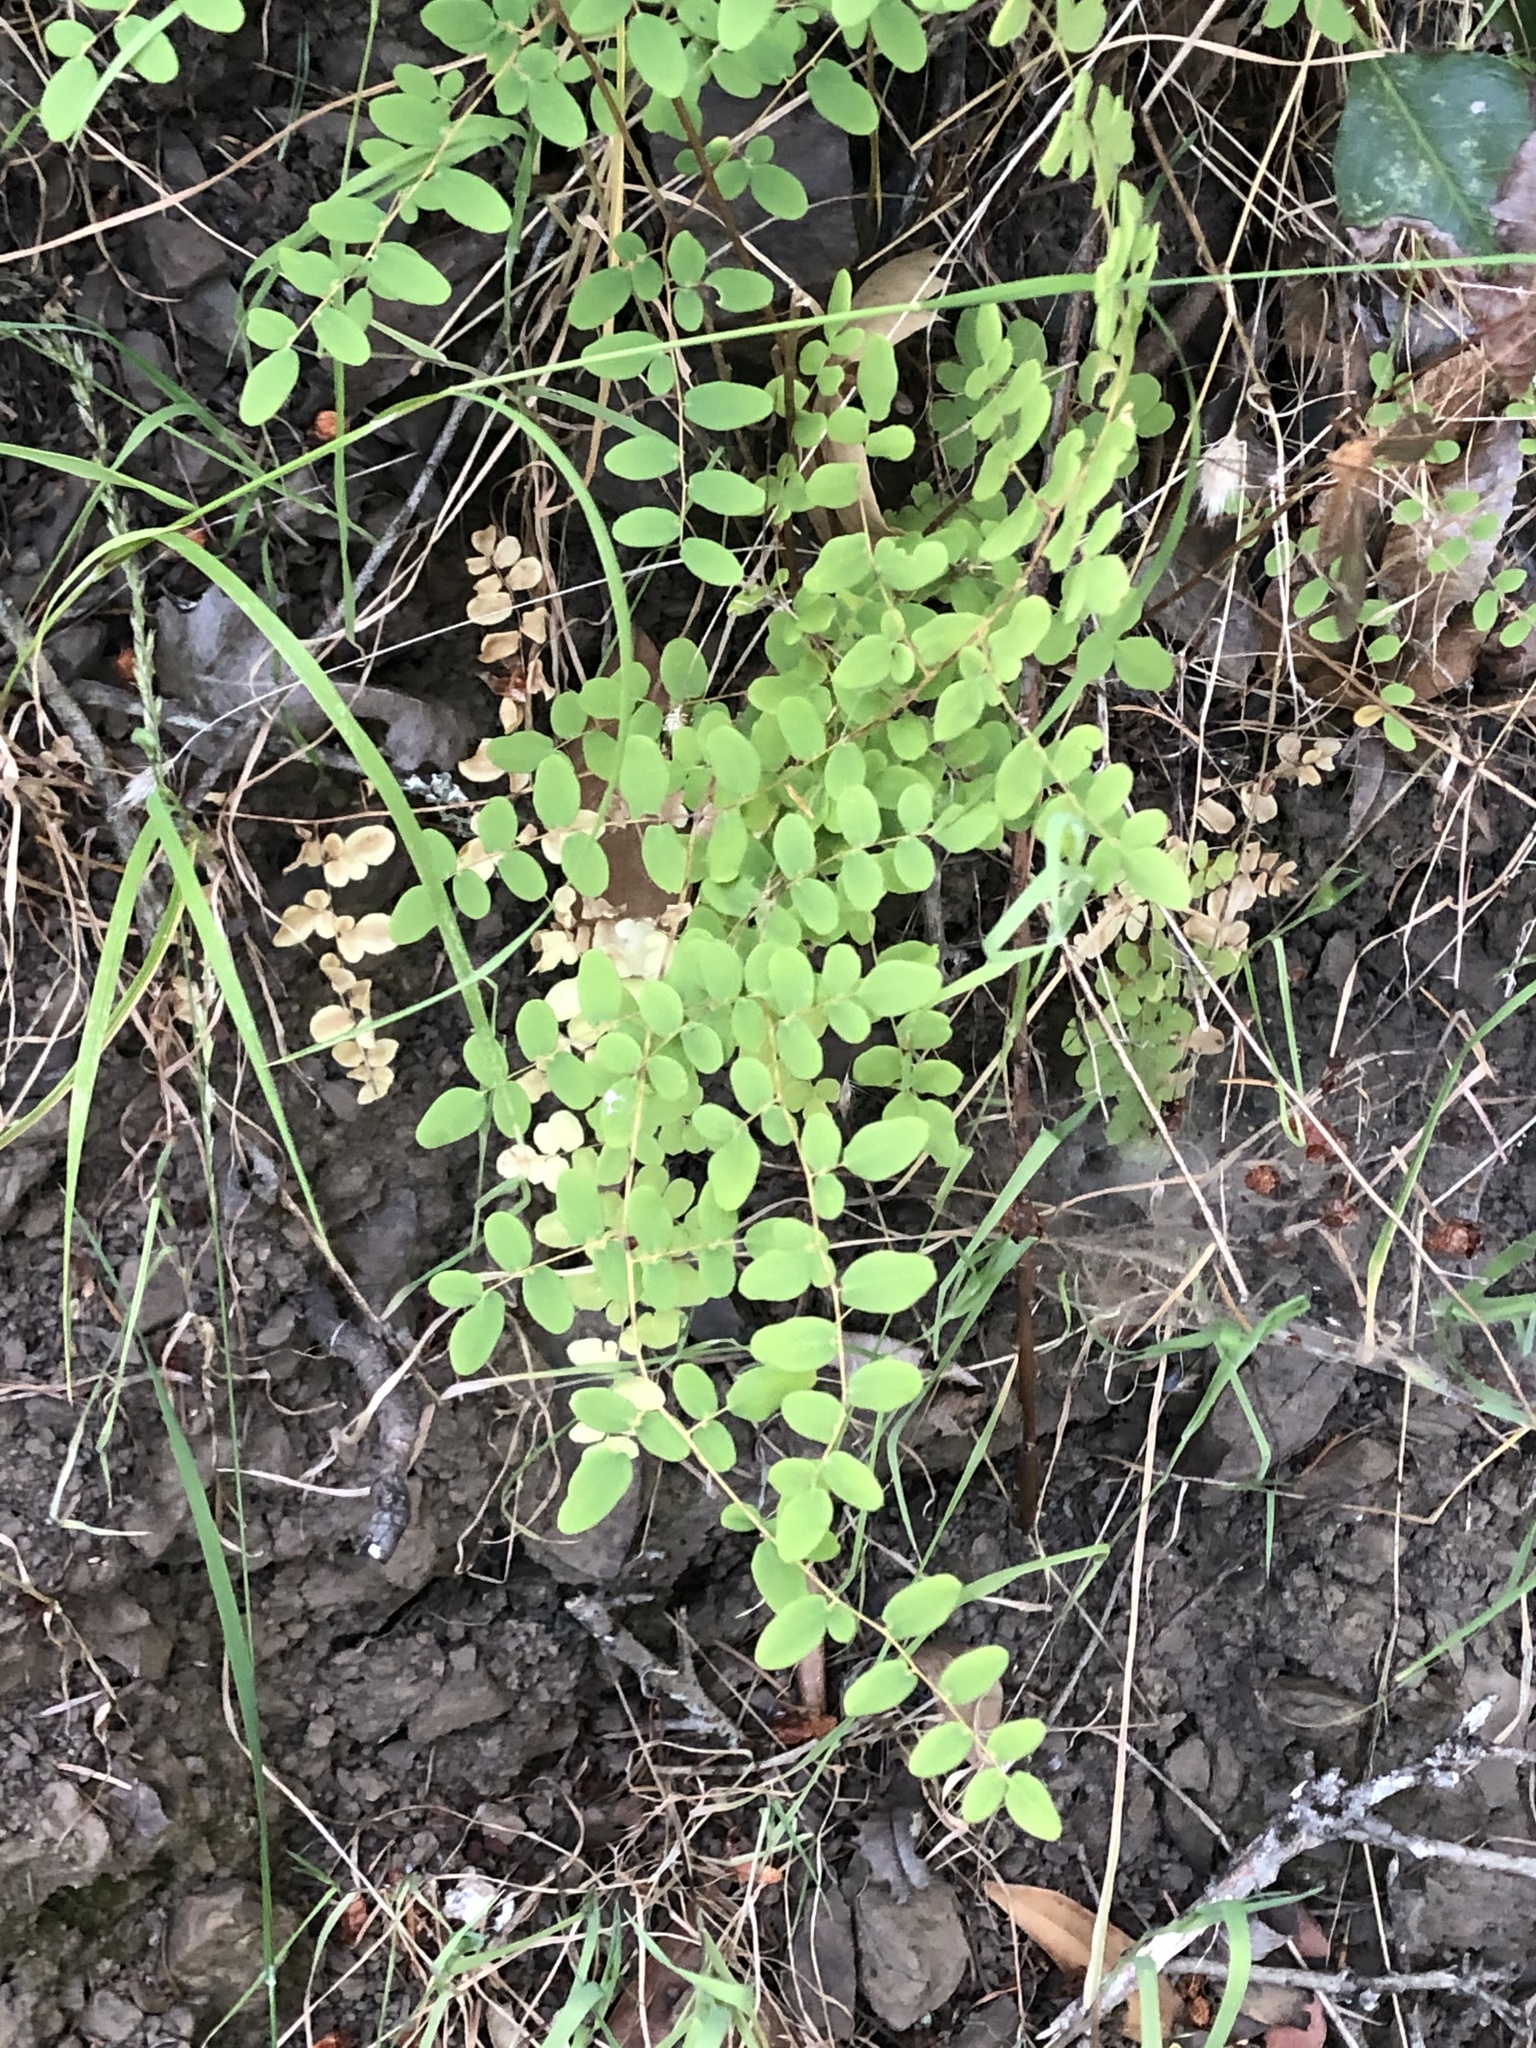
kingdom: Plantae
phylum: Tracheophyta
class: Polypodiopsida
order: Polypodiales
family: Pteridaceae
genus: Pellaea
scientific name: Pellaea andromedifolia
